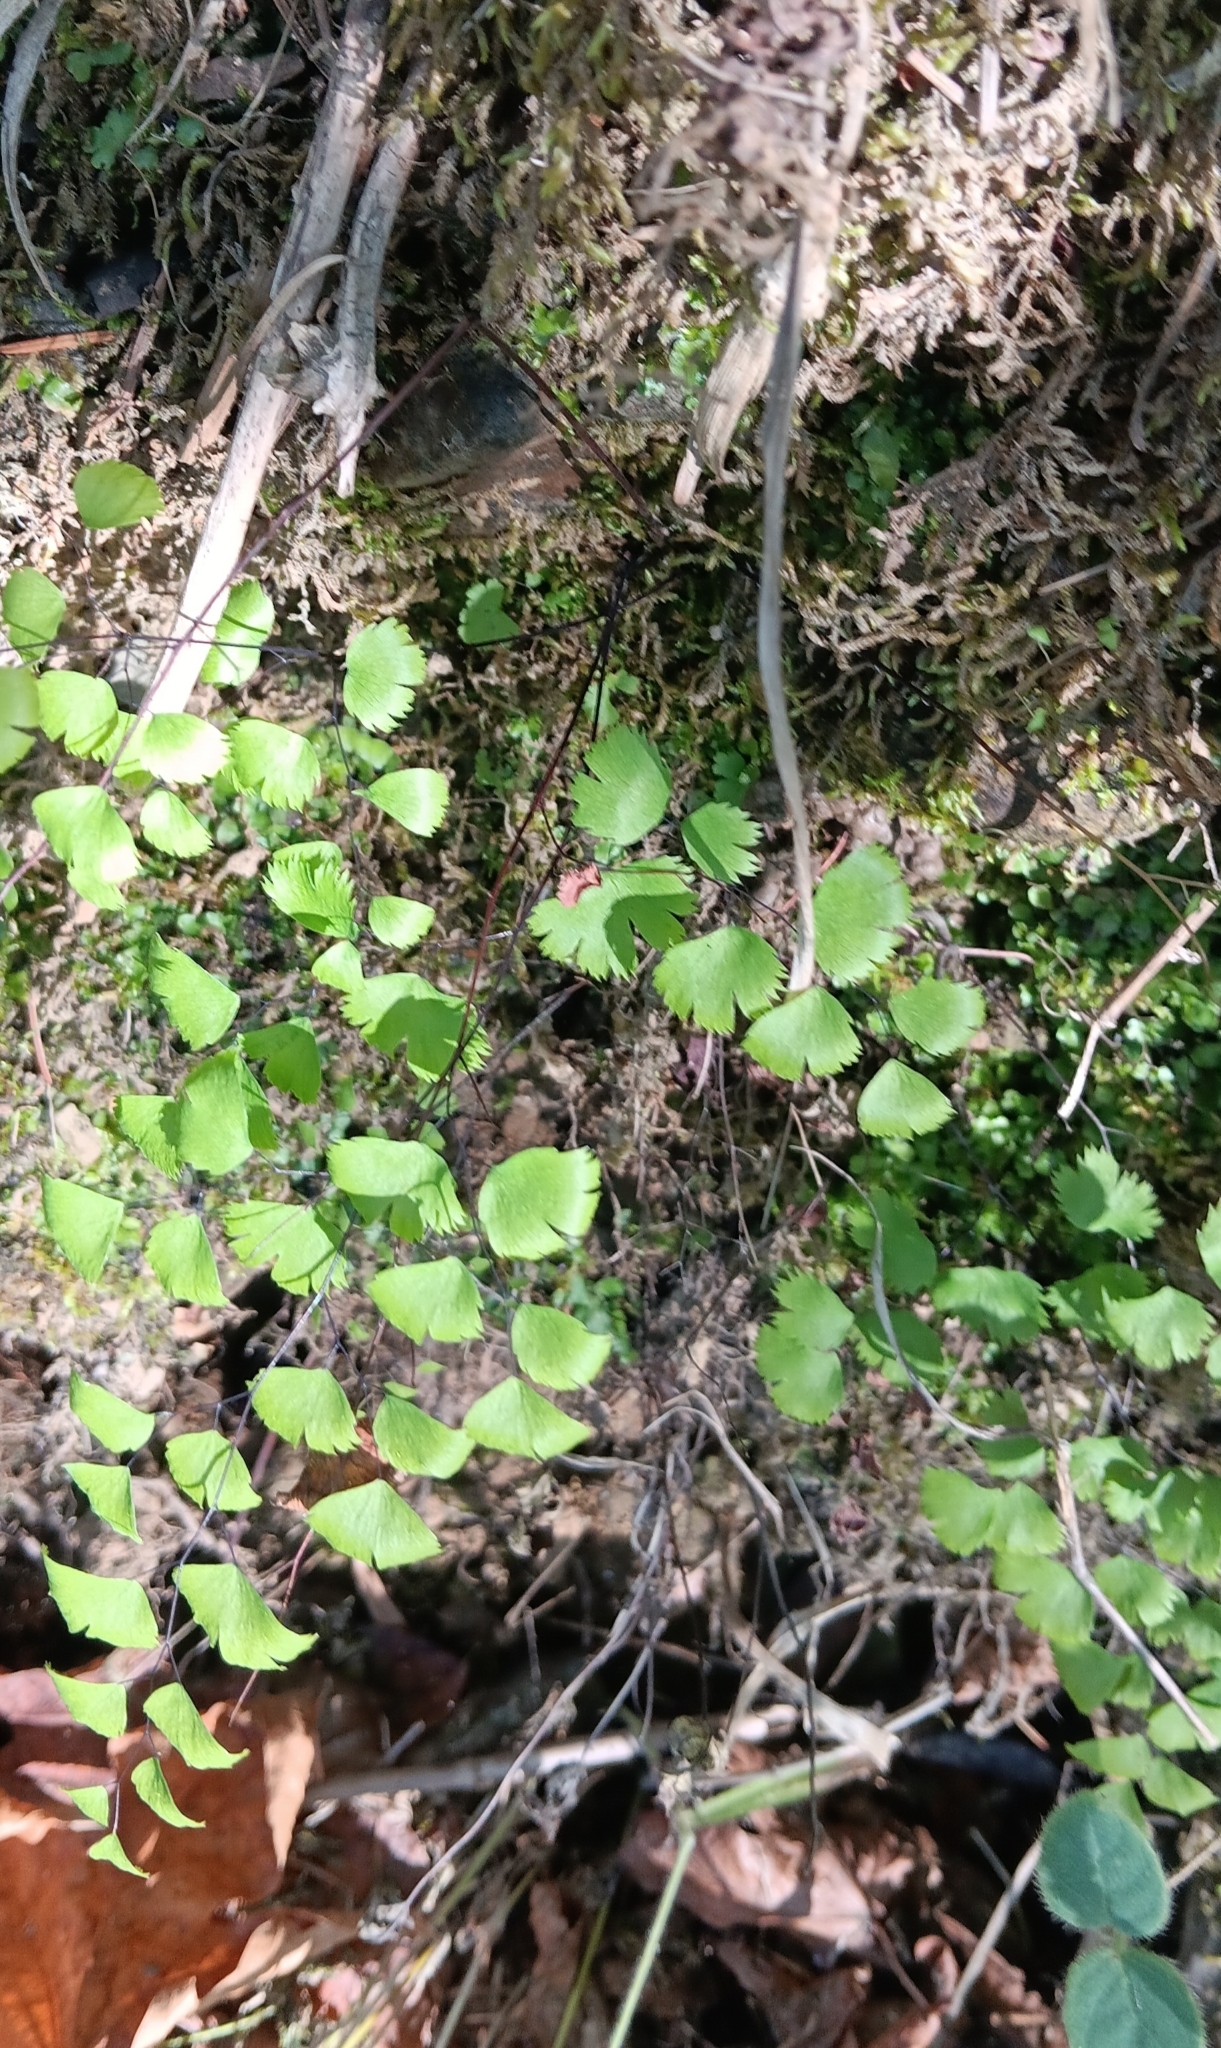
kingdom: Plantae
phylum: Tracheophyta
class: Polypodiopsida
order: Polypodiales
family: Pteridaceae
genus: Adiantum
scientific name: Adiantum jordanii
